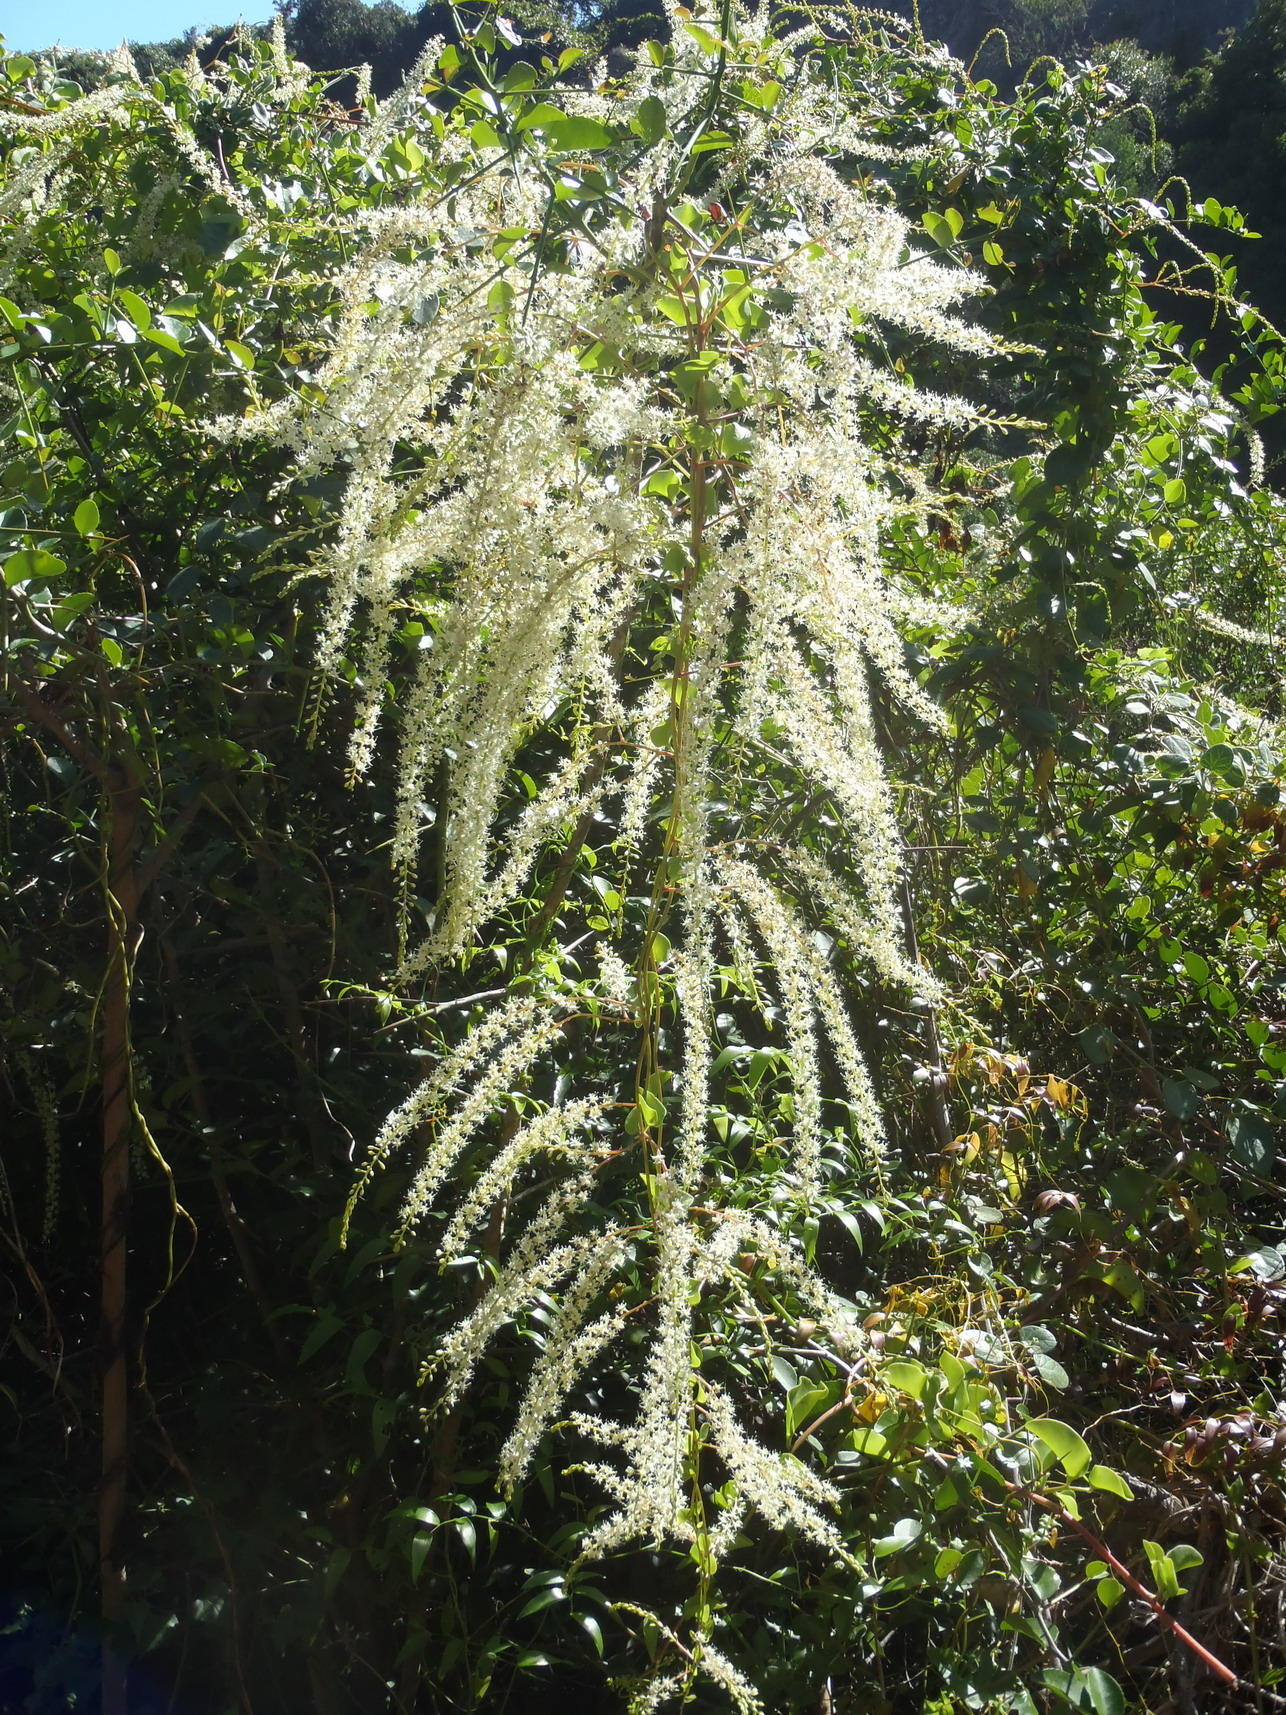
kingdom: Plantae
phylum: Tracheophyta
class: Magnoliopsida
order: Caryophyllales
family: Basellaceae
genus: Anredera
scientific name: Anredera cordifolia
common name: Heartleaf madeiravine
